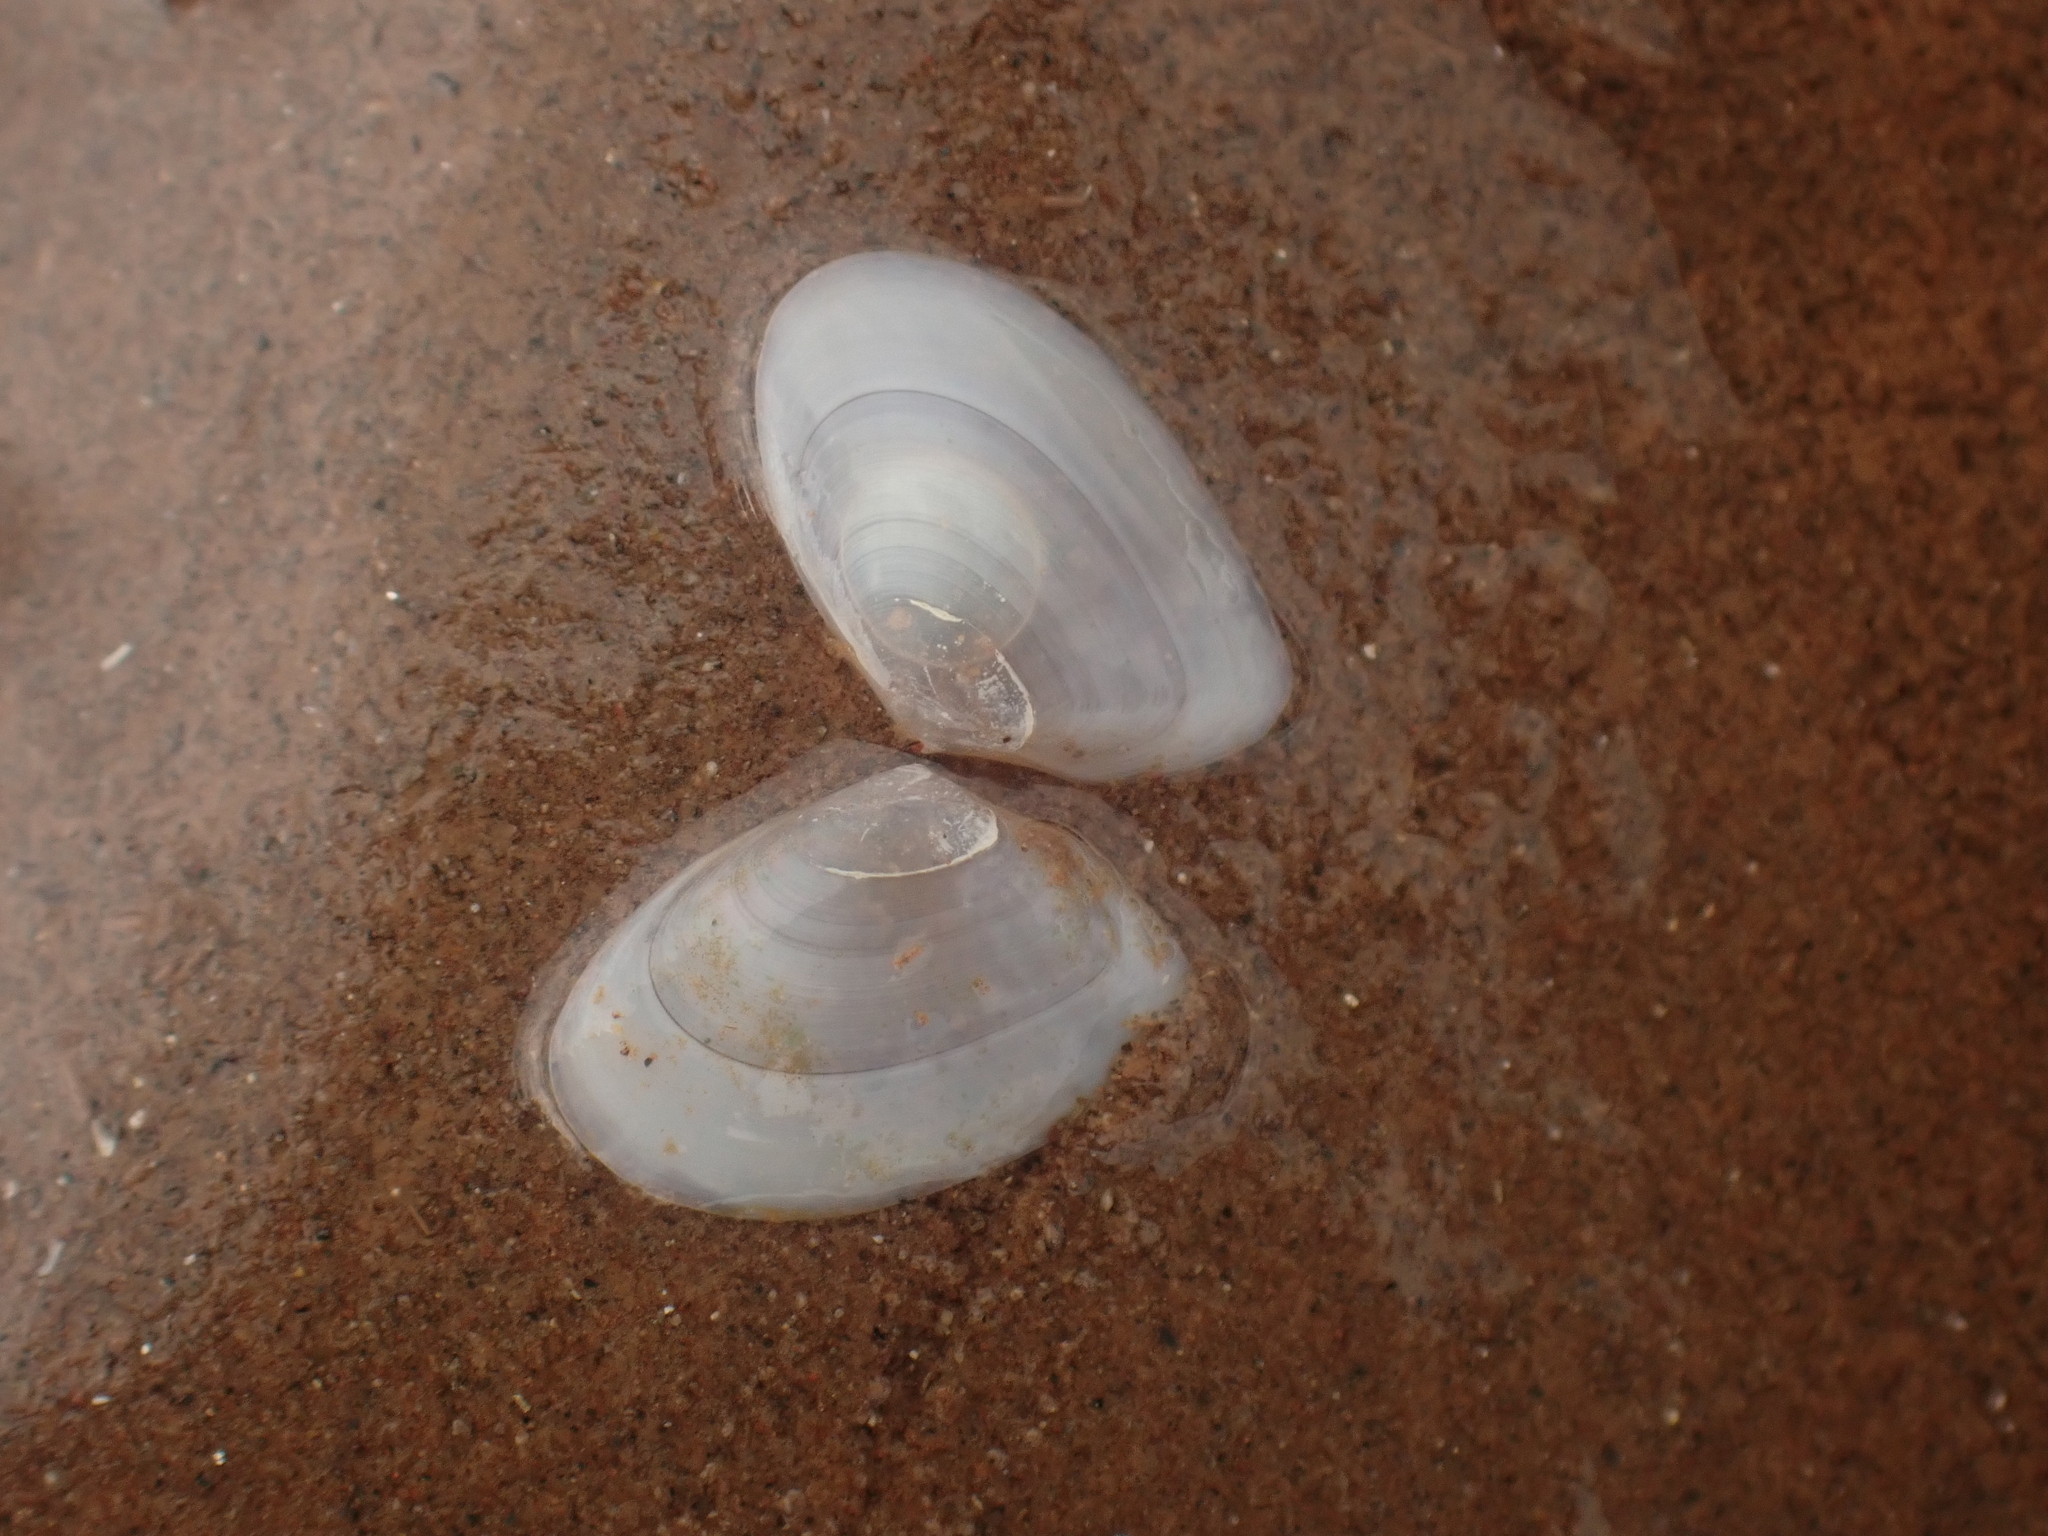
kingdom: Animalia
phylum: Mollusca
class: Bivalvia
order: Cardiida
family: Tellinidae
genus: Ameritella
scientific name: Ameritella agilis
